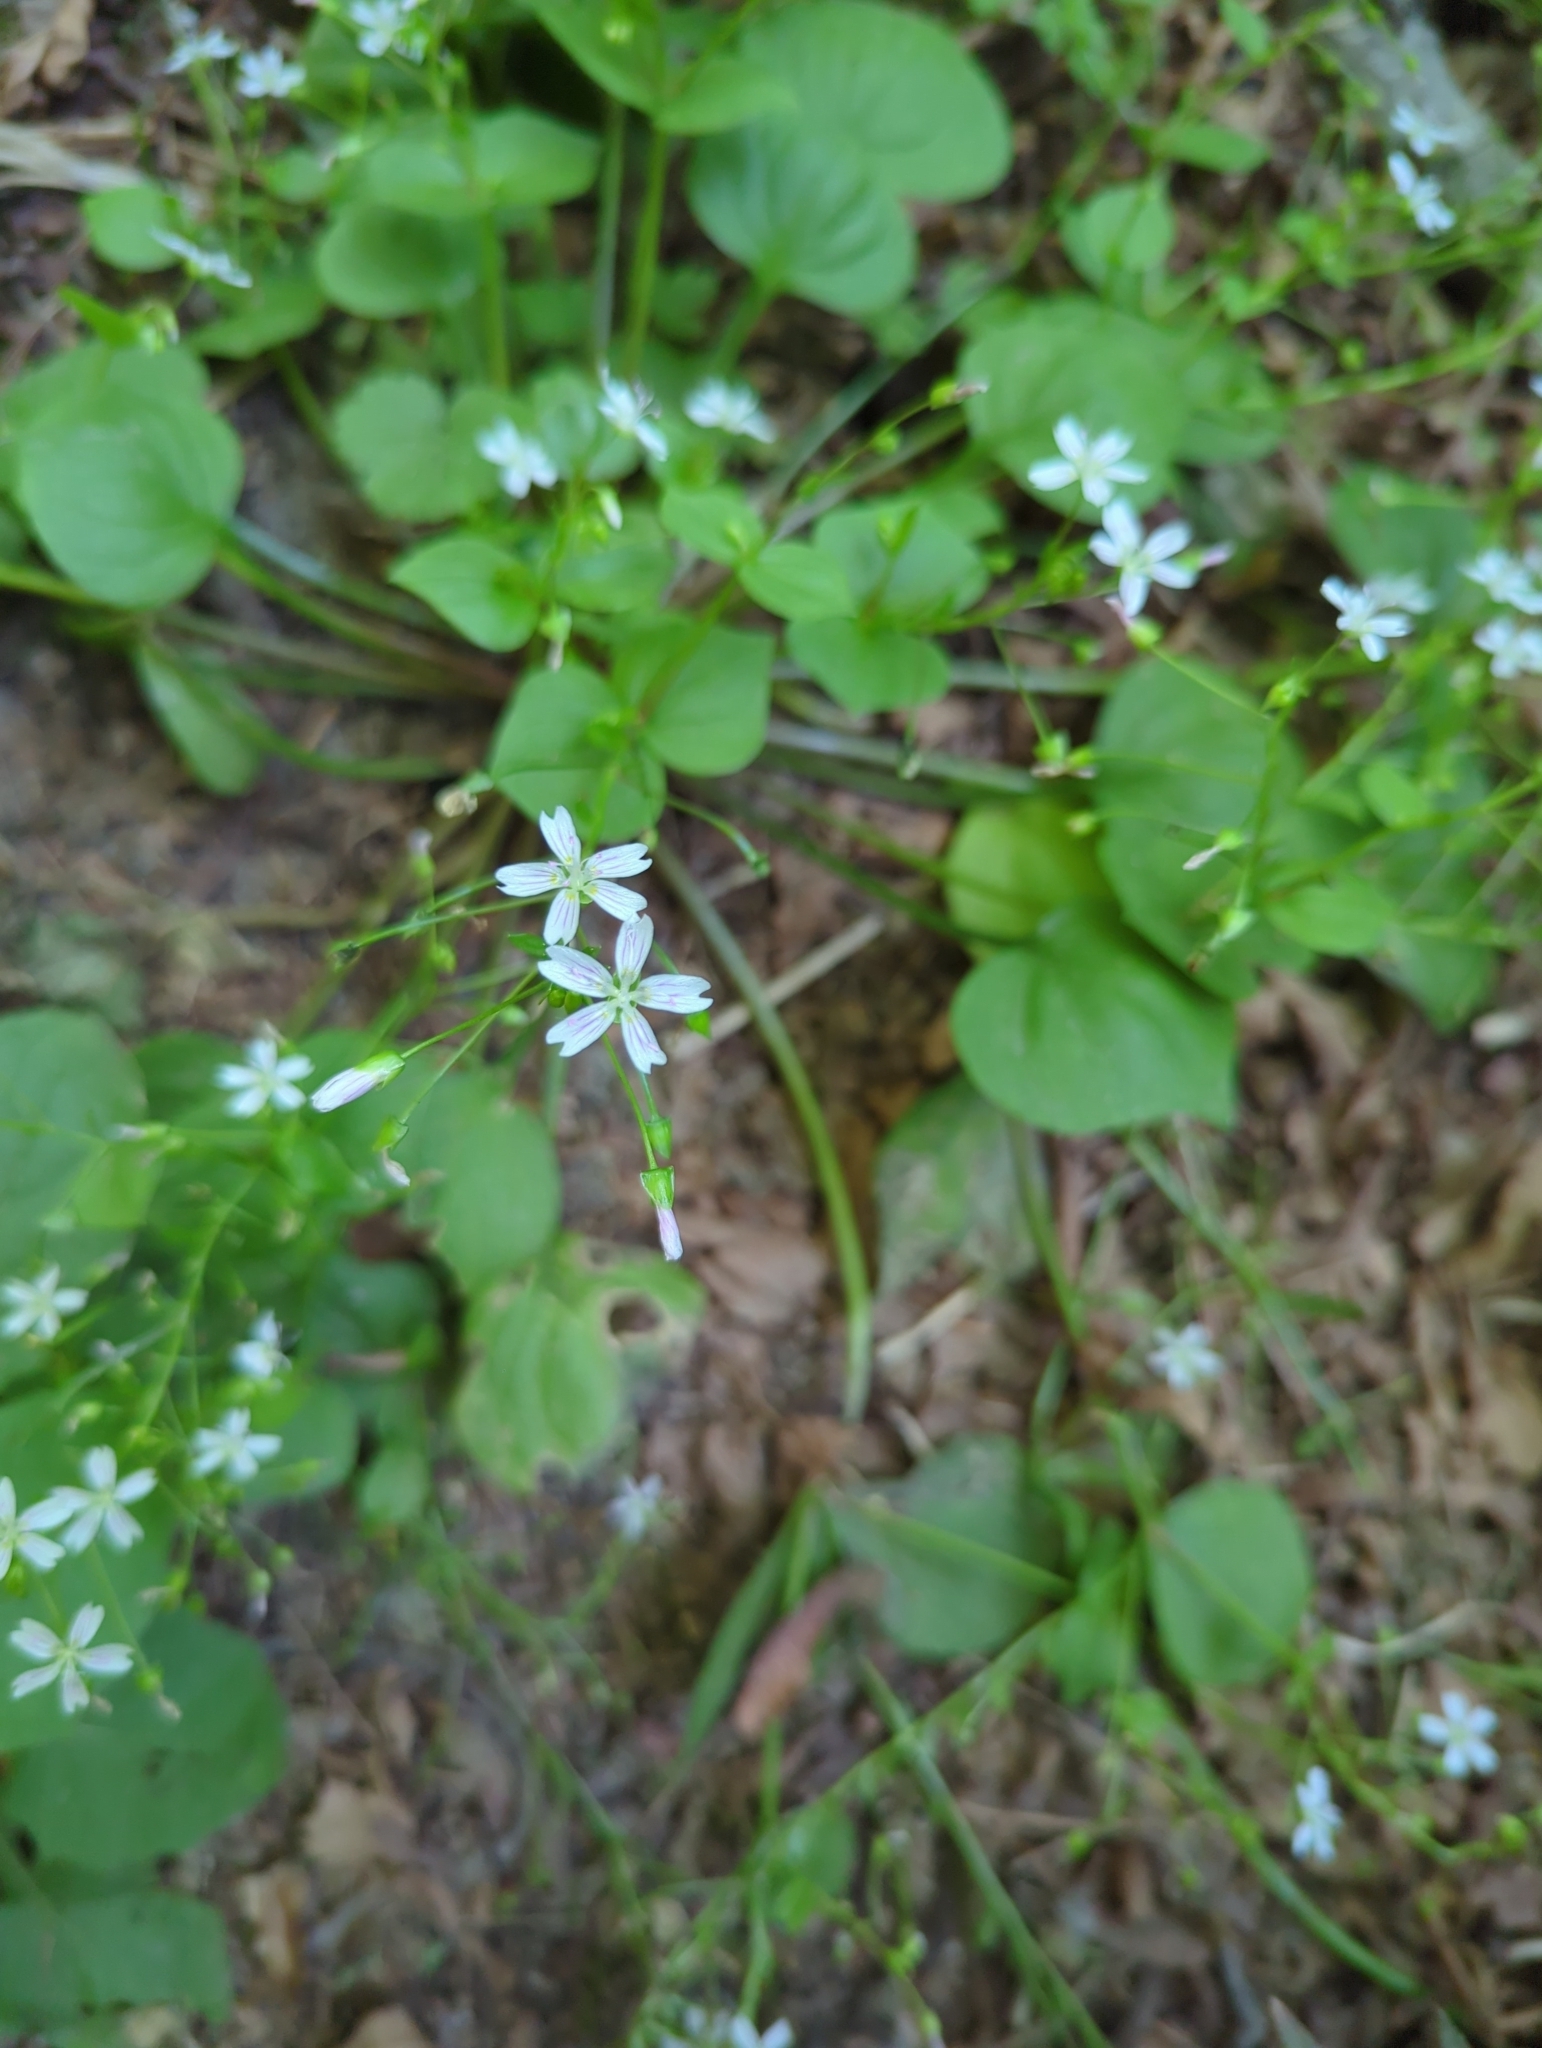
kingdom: Plantae
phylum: Tracheophyta
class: Magnoliopsida
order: Caryophyllales
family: Montiaceae
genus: Claytonia
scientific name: Claytonia sibirica
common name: Pink purslane
